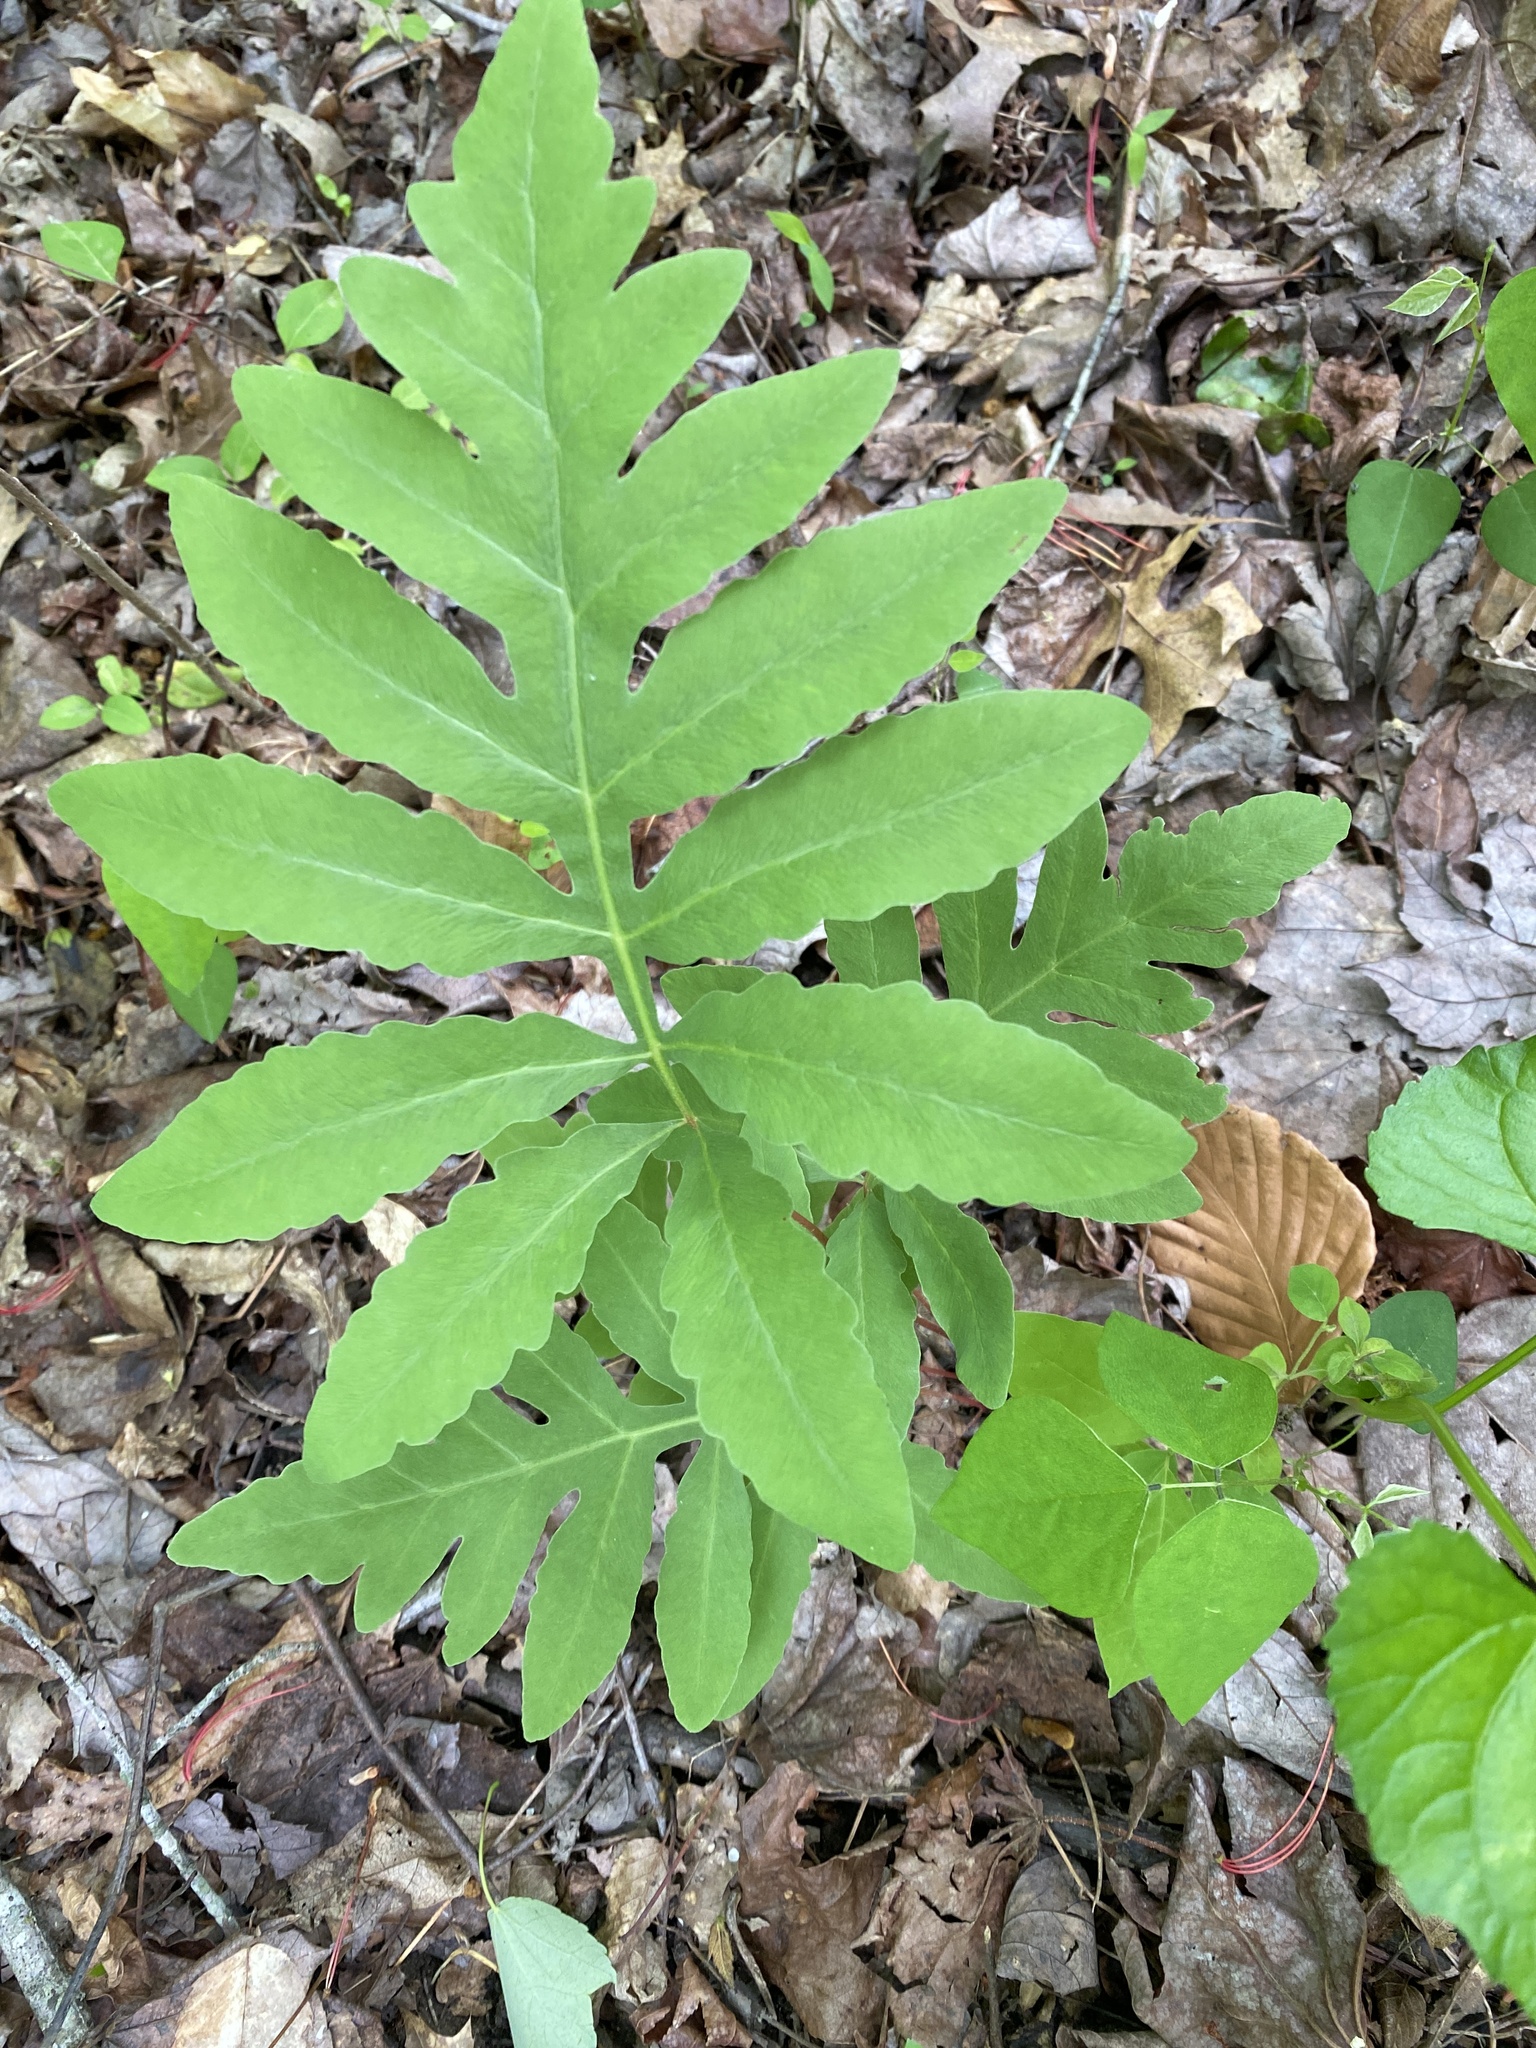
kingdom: Plantae
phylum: Tracheophyta
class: Polypodiopsida
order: Polypodiales
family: Onocleaceae
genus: Onoclea
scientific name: Onoclea sensibilis
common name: Sensitive fern
